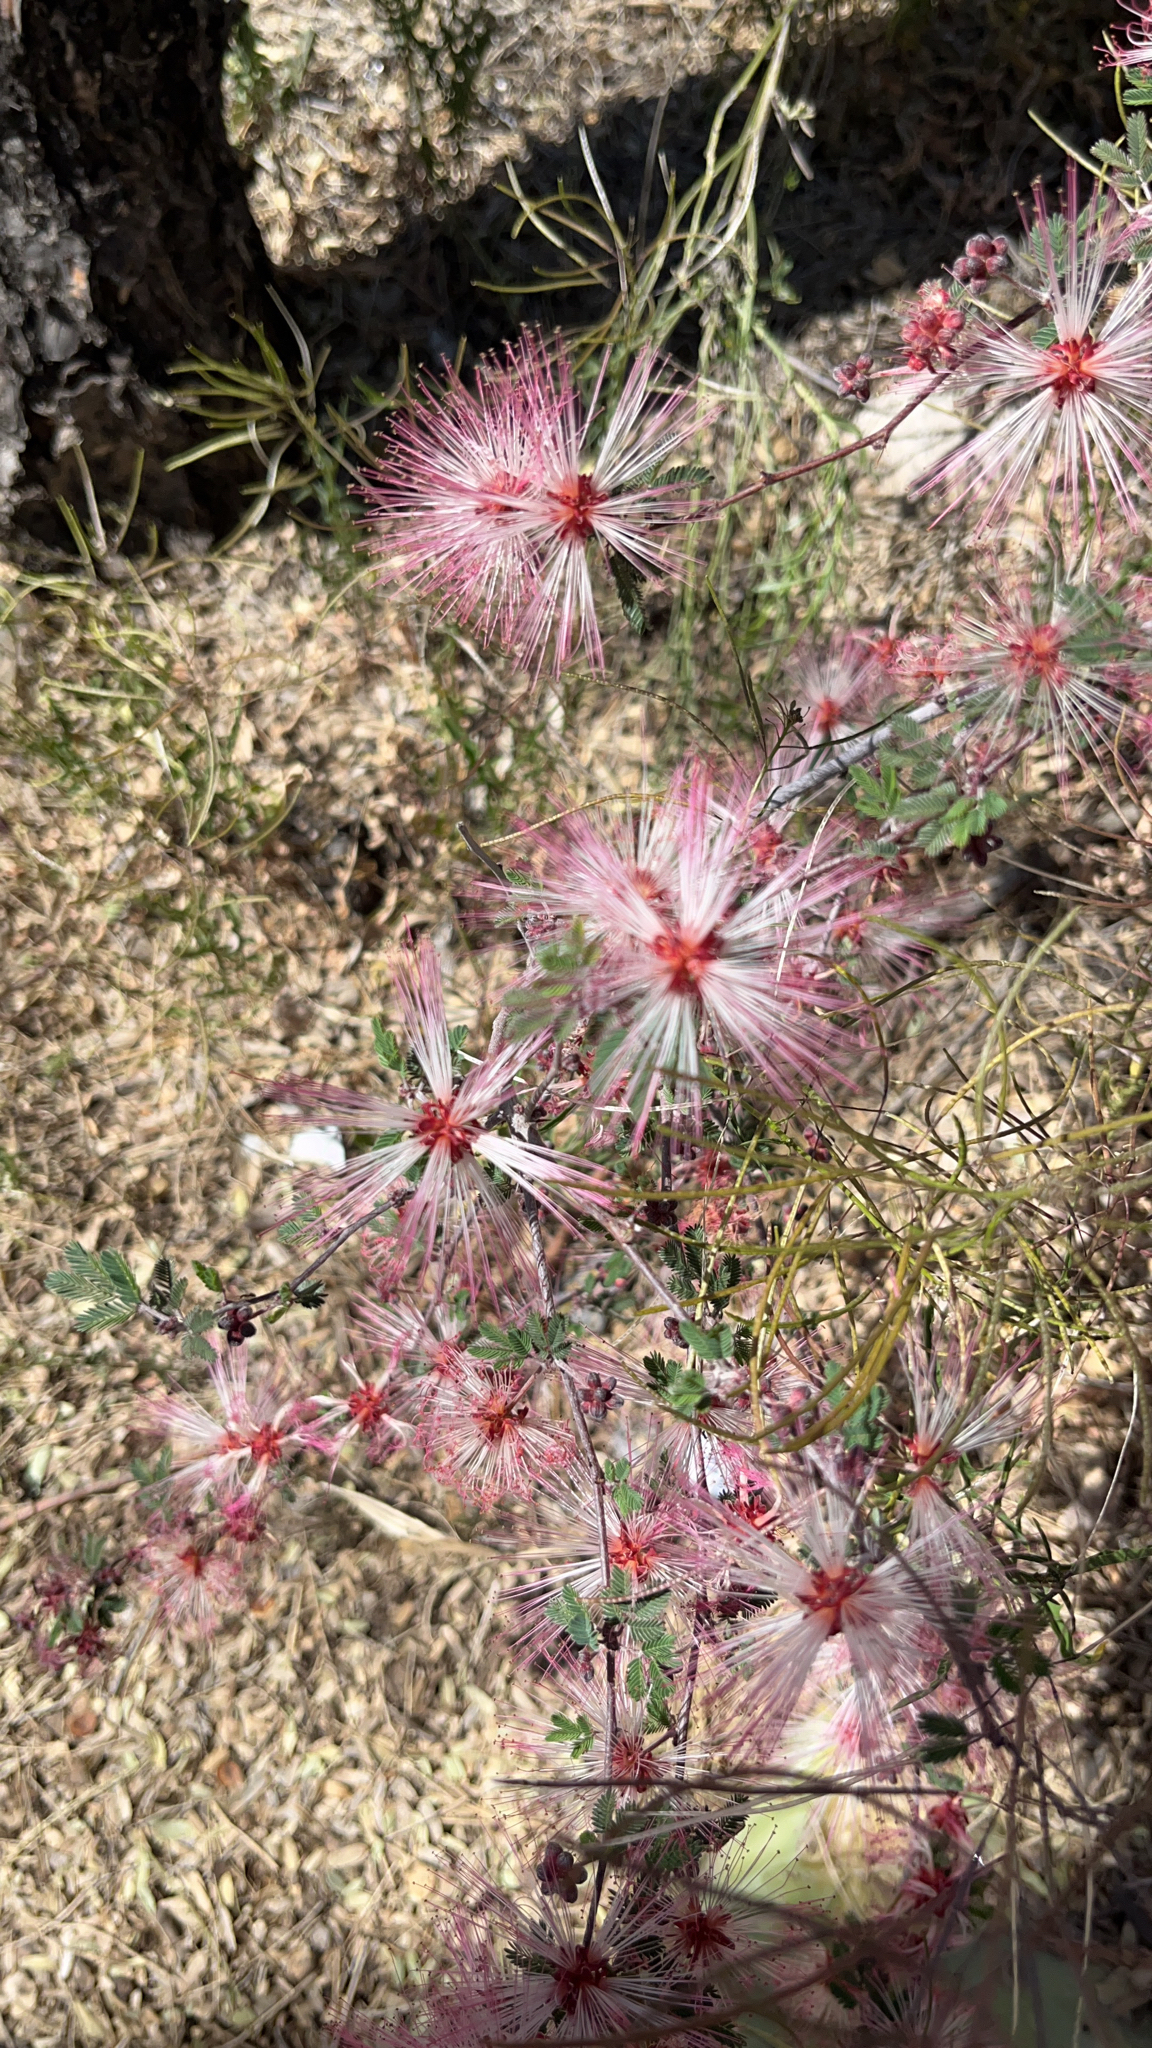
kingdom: Plantae
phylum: Tracheophyta
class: Magnoliopsida
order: Fabales
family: Fabaceae
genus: Calliandra
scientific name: Calliandra eriophylla
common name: Fairy-duster
